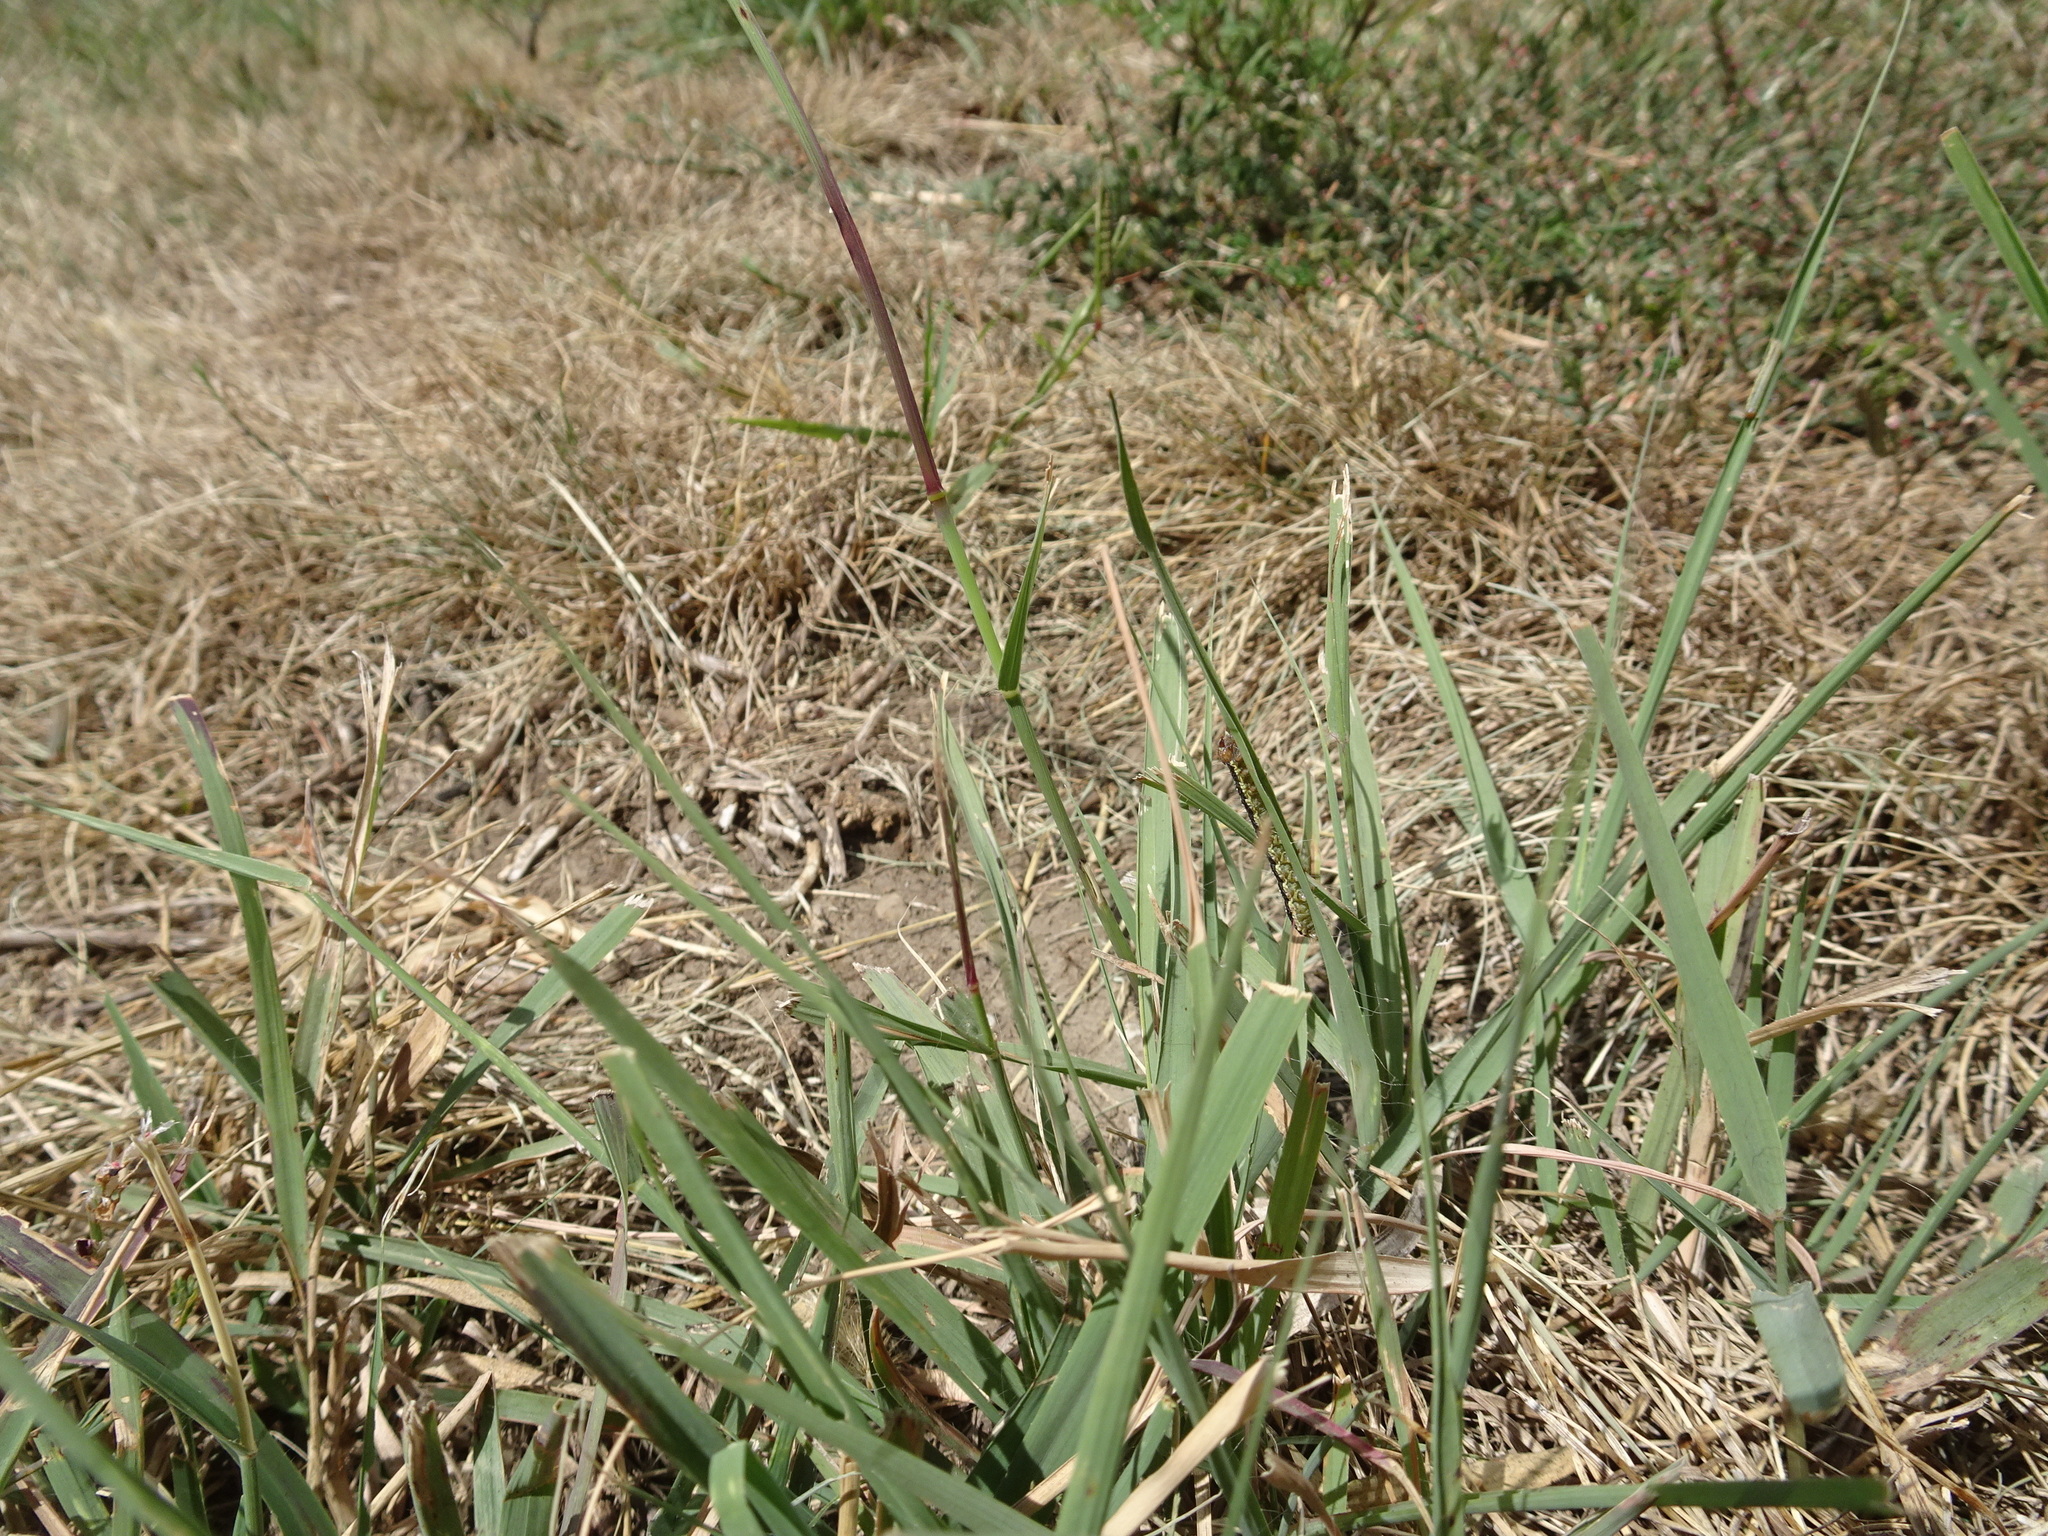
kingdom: Plantae
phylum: Tracheophyta
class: Liliopsida
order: Poales
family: Poaceae
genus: Bouteloua
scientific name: Bouteloua curtipendula
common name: Side-oats grama
